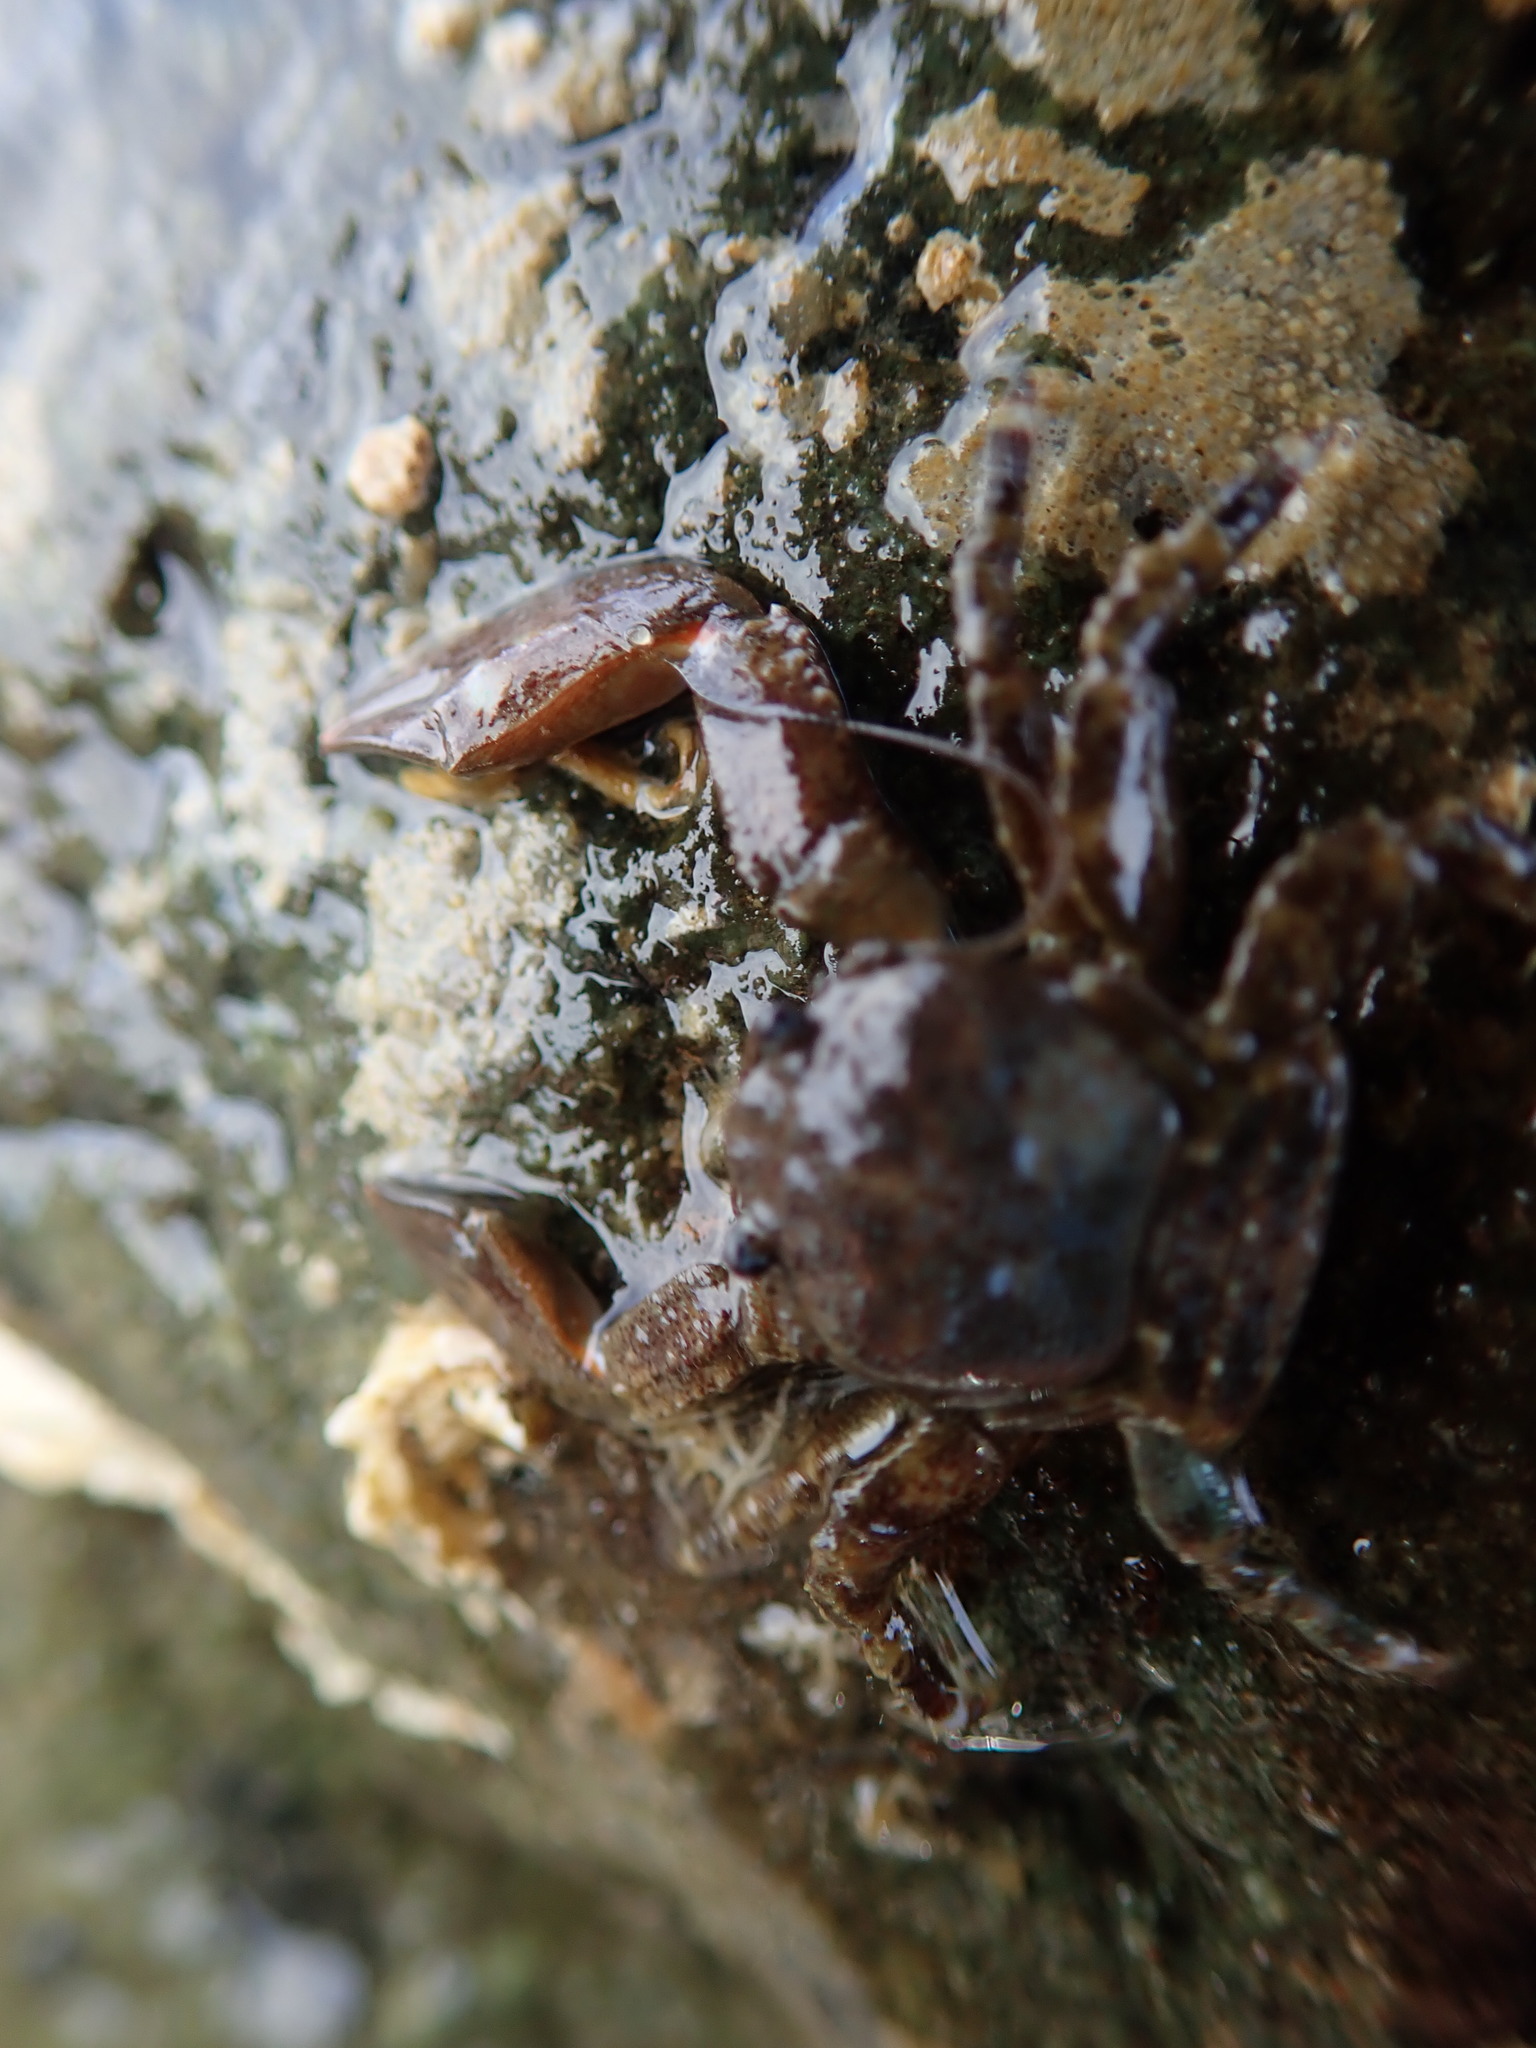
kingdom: Animalia
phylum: Arthropoda
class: Malacostraca
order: Decapoda
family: Porcellanidae
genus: Petrolisthes
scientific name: Petrolisthes eriomerus
